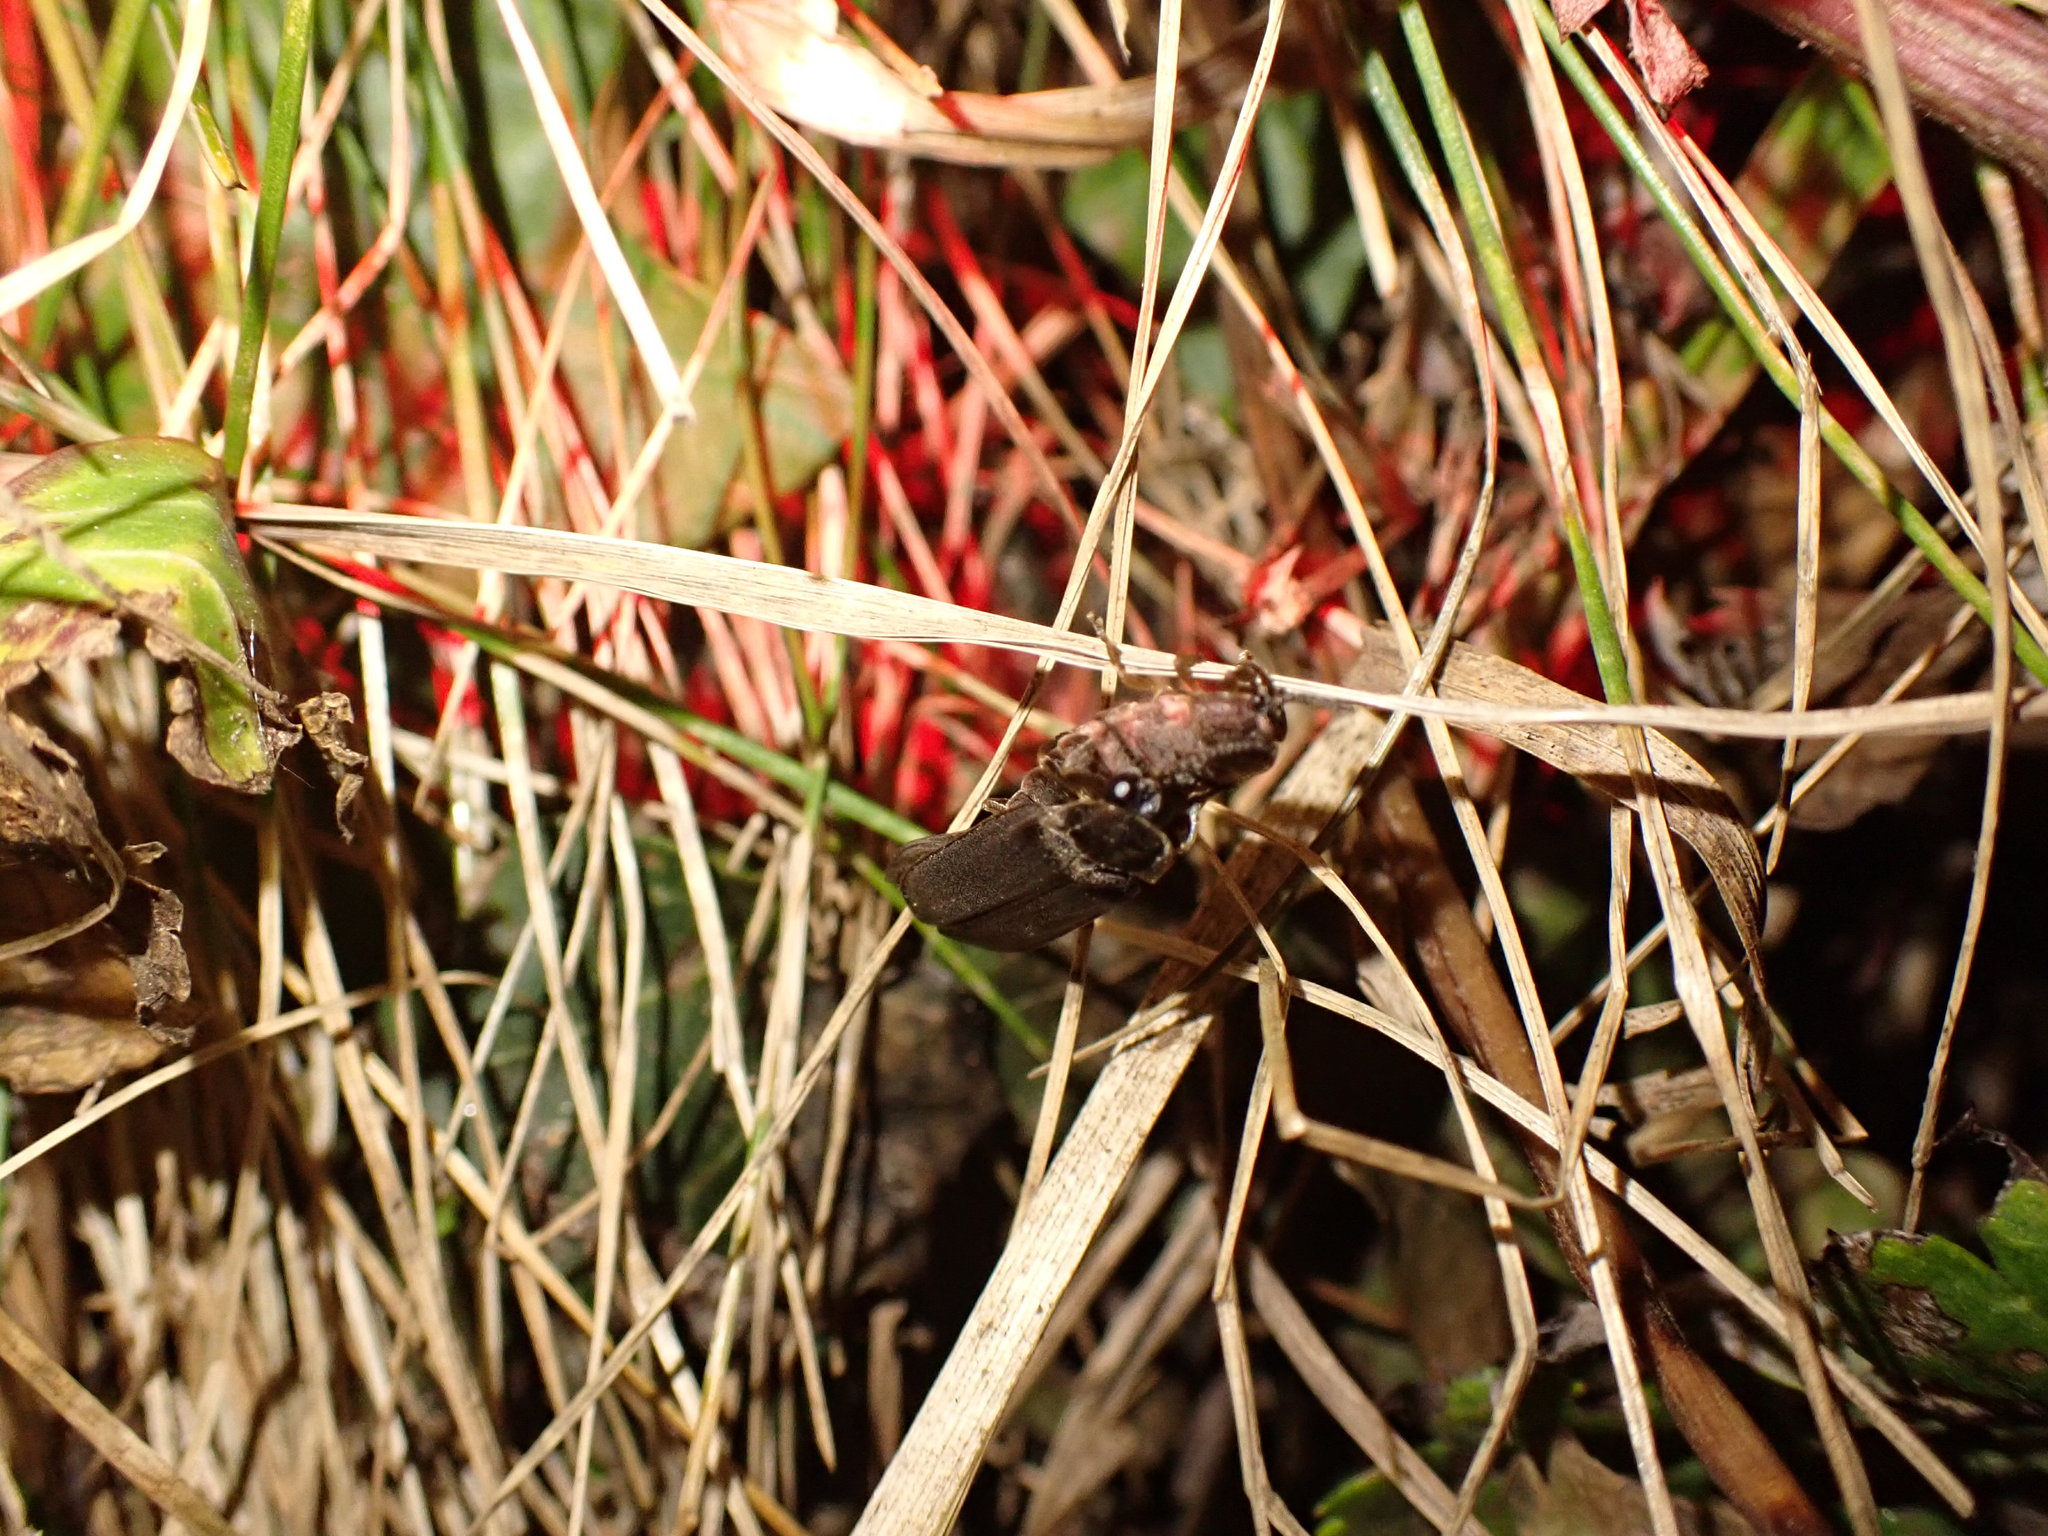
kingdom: Animalia
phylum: Arthropoda
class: Insecta
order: Coleoptera
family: Lampyridae
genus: Lampyris
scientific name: Lampyris noctiluca
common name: Glow-worm
